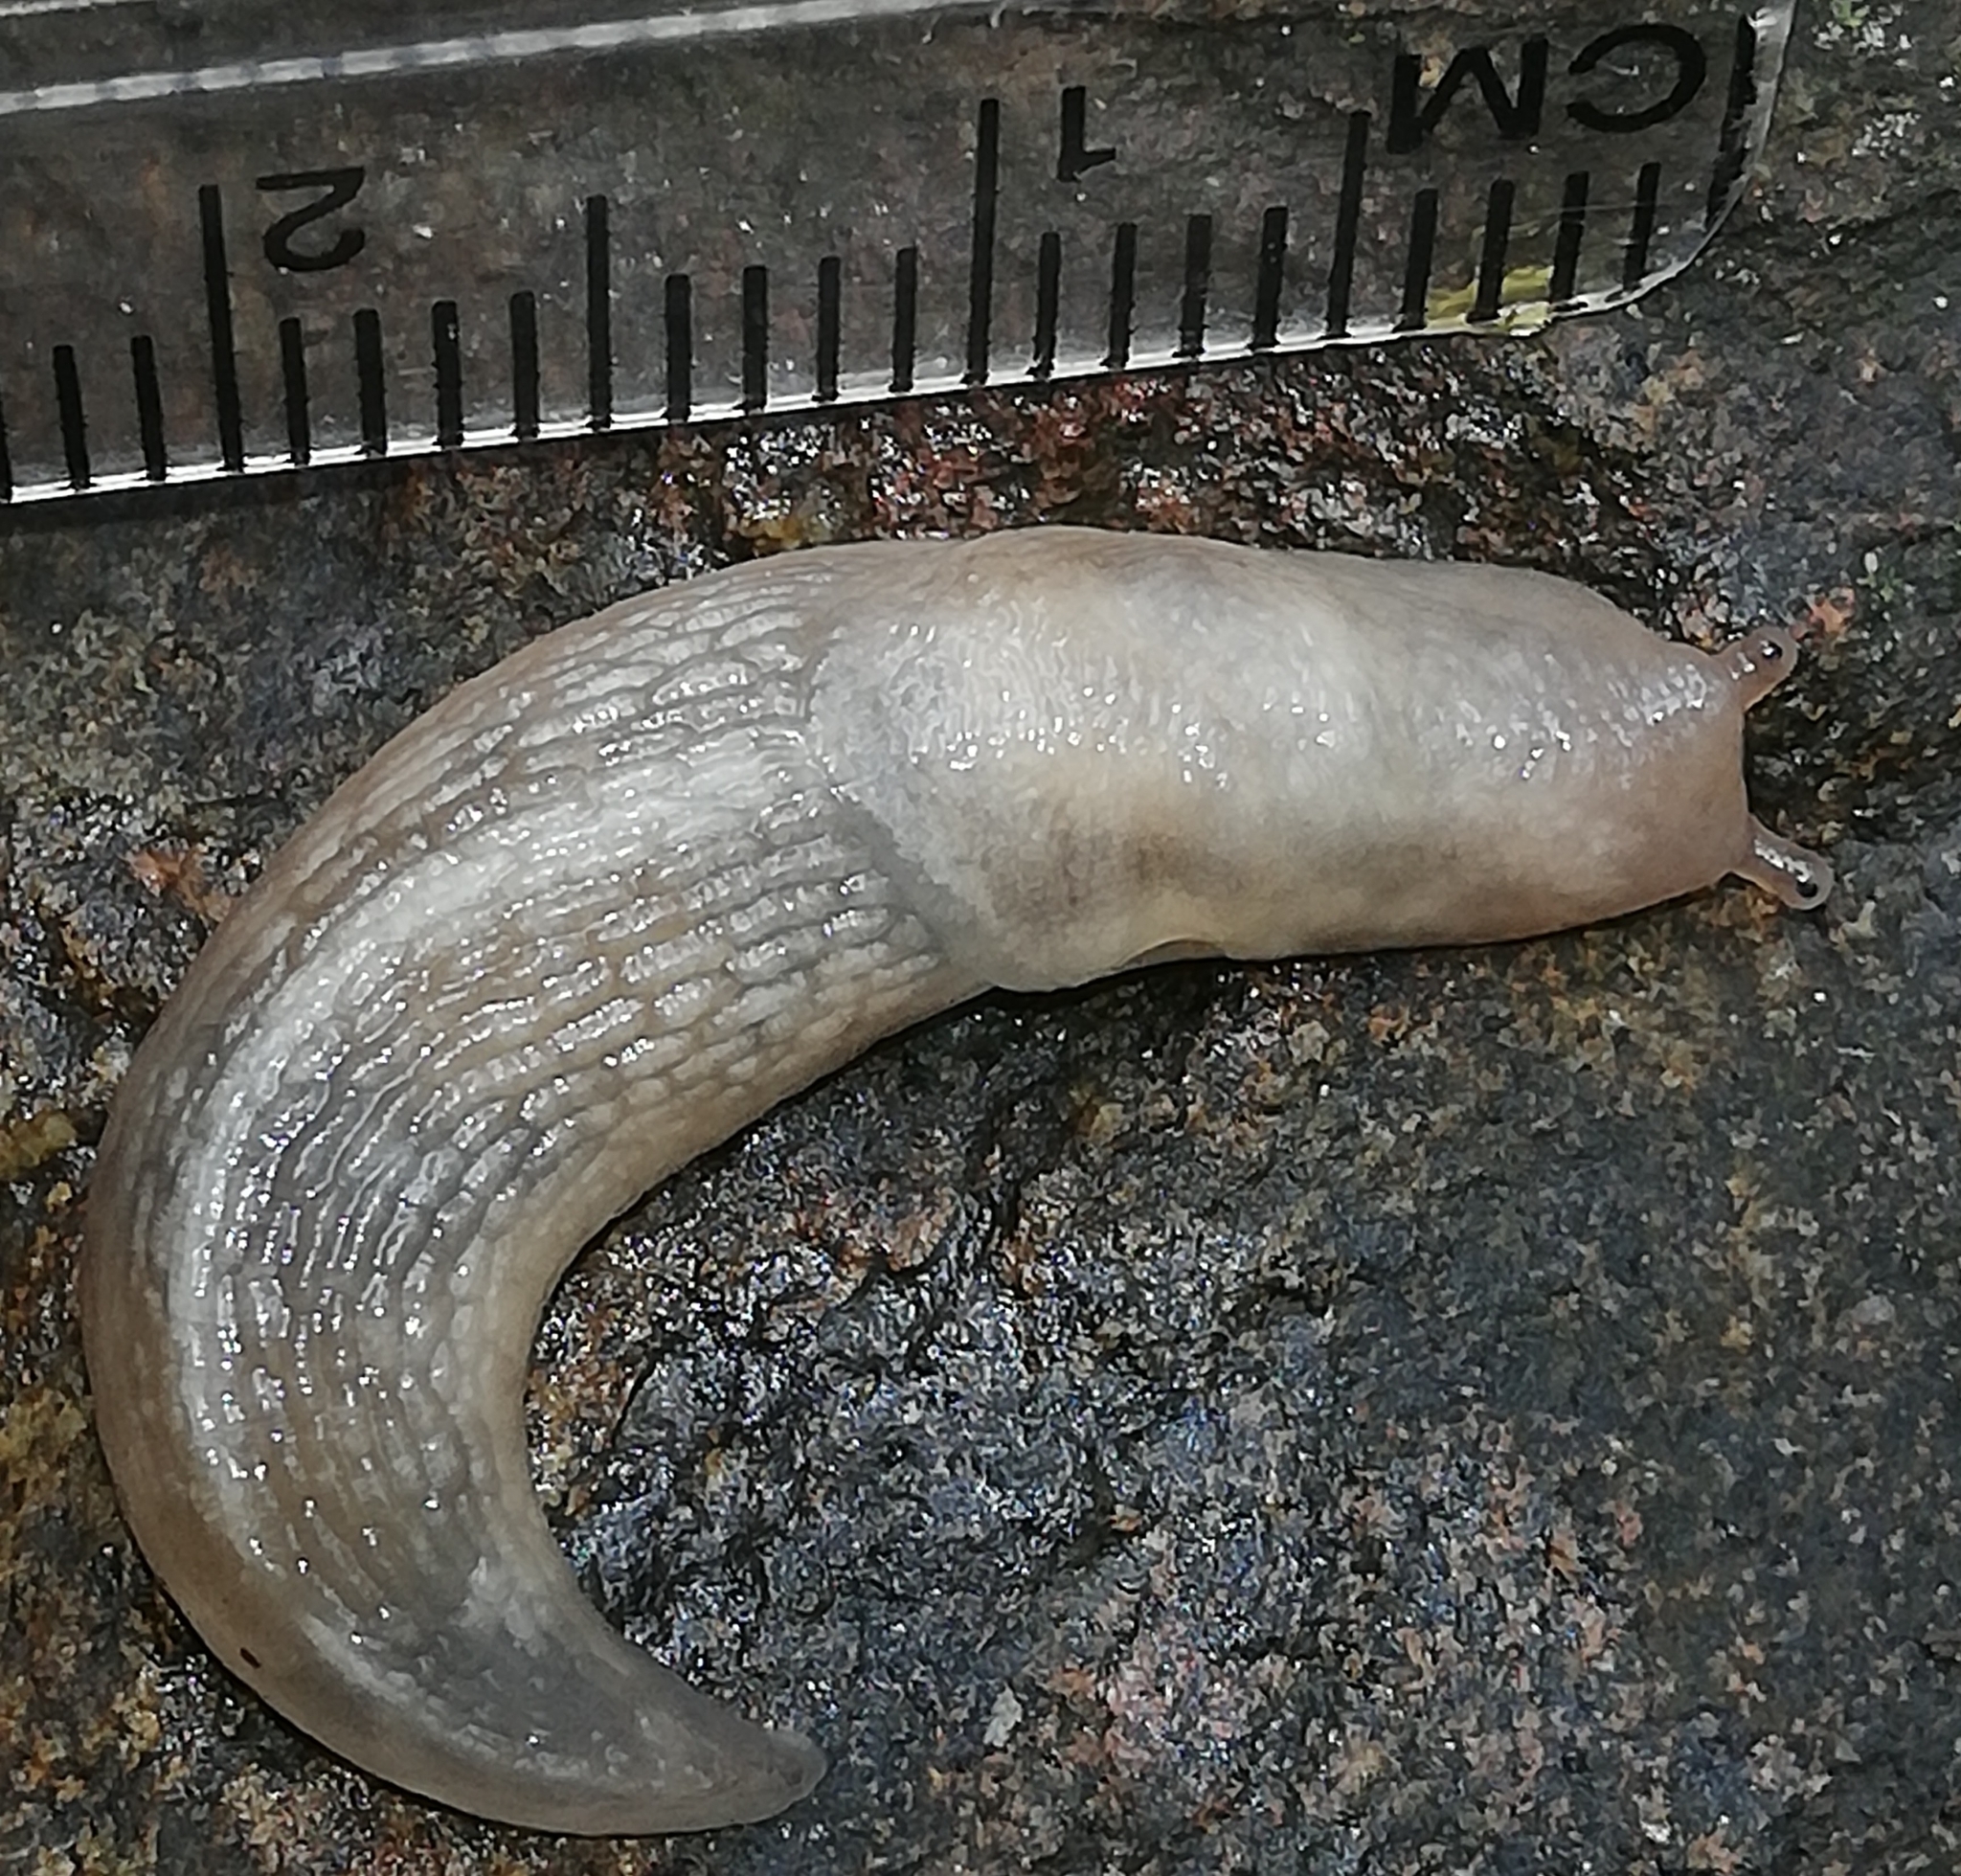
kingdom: Animalia
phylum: Mollusca
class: Gastropoda
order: Stylommatophora
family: Limacidae
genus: Lehmannia
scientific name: Lehmannia marginata
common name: Tree slug
